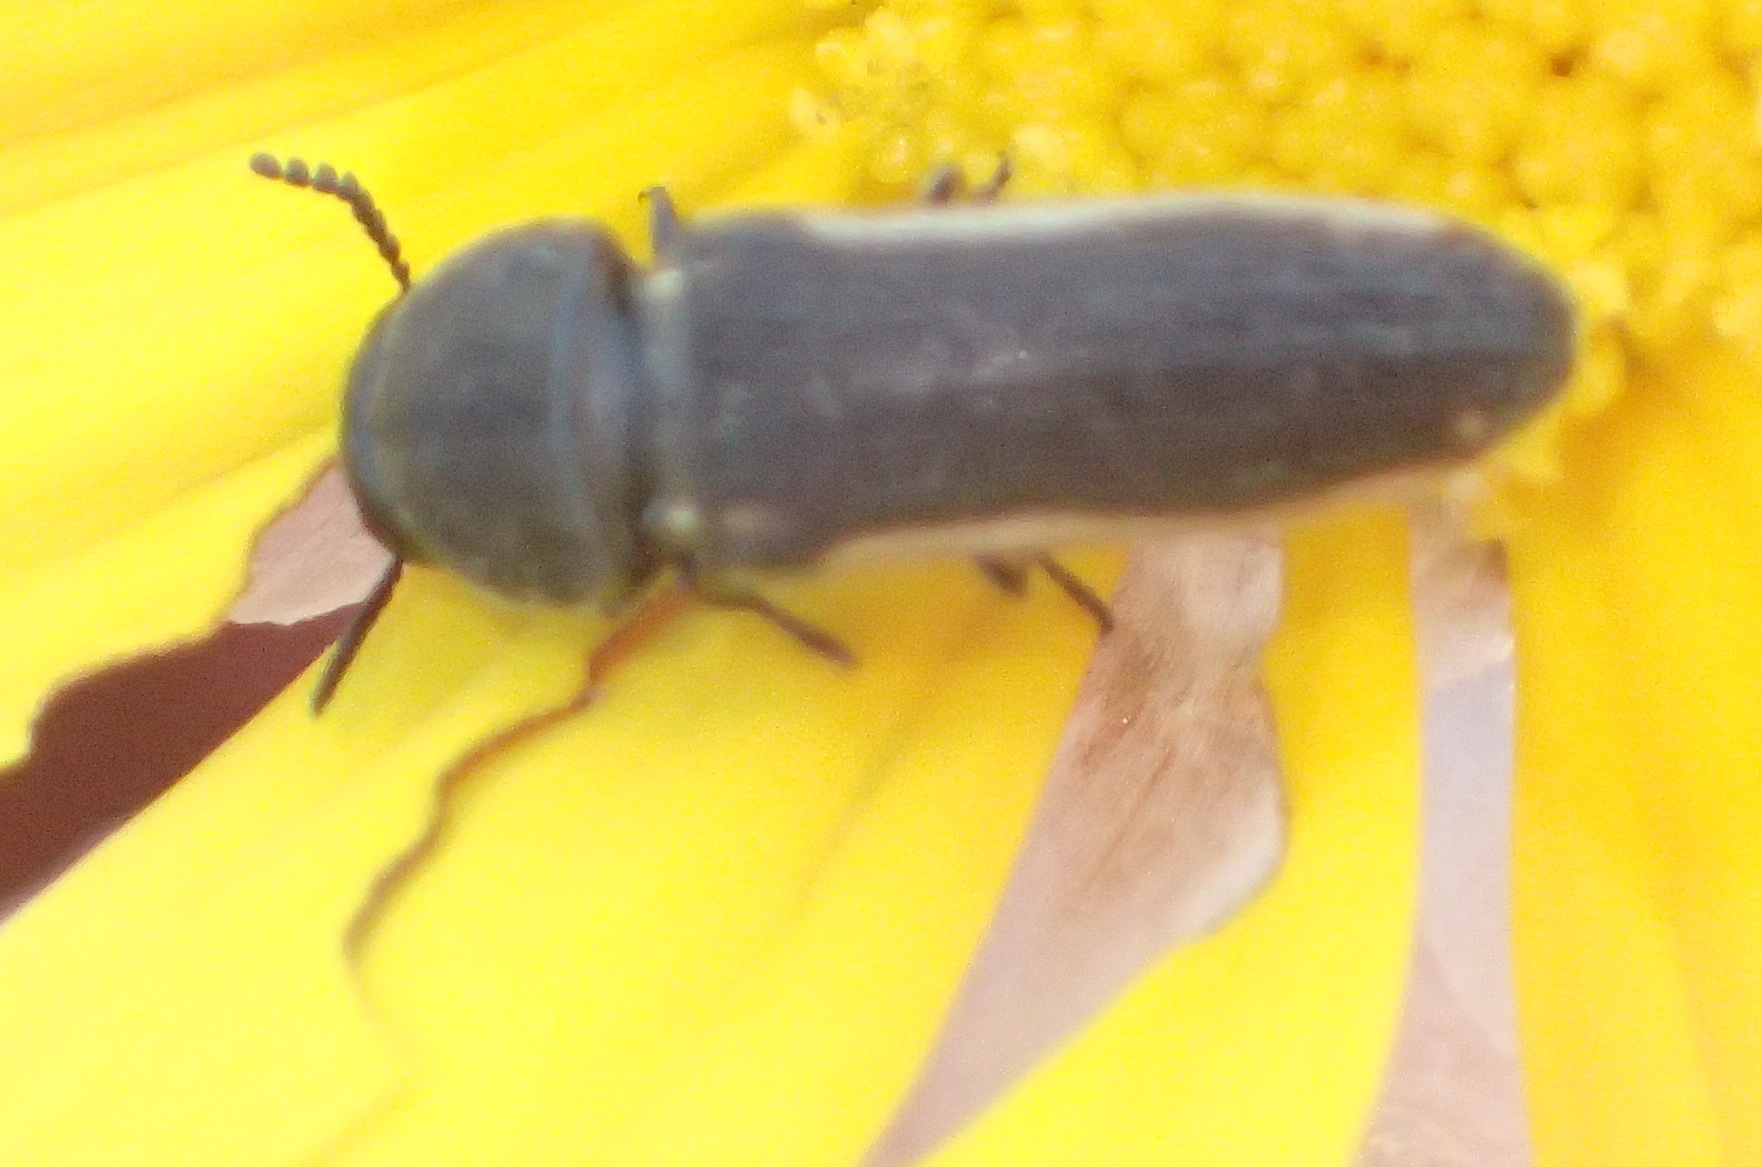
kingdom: Animalia
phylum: Arthropoda
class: Insecta
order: Coleoptera
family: Buprestidae
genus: Acmaeodera
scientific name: Acmaeodera gracilis
